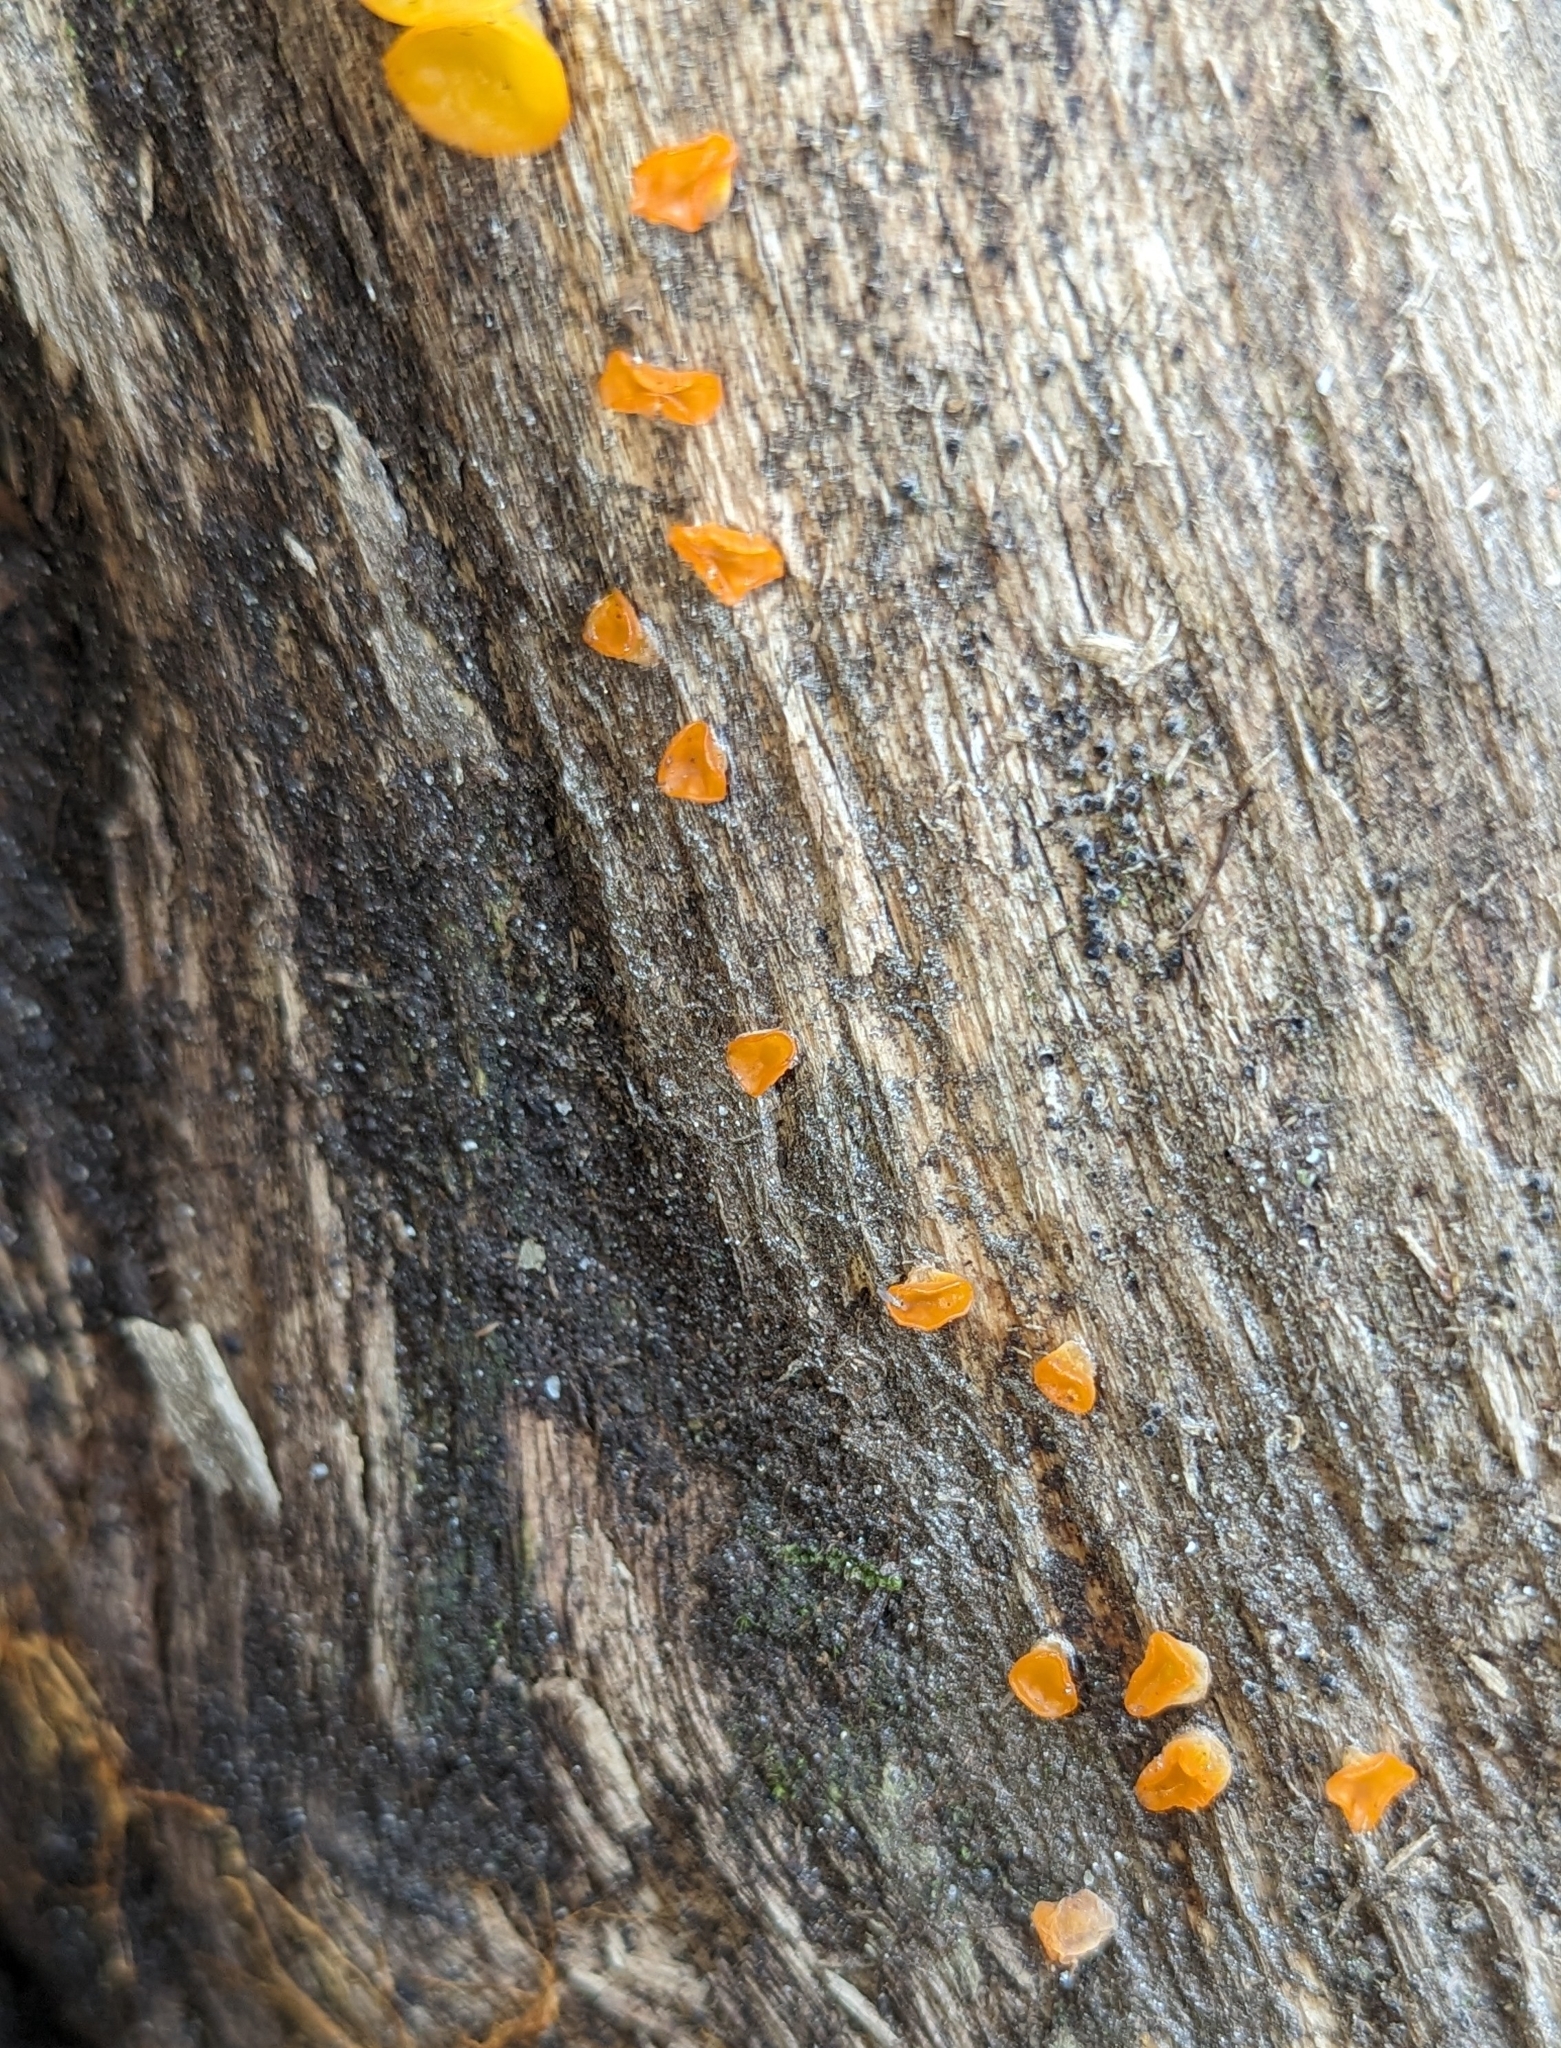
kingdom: Fungi
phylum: Basidiomycota
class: Dacrymycetes
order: Dacrymycetales
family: Dacrymycetaceae
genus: Guepiniopsis
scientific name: Guepiniopsis alpina
